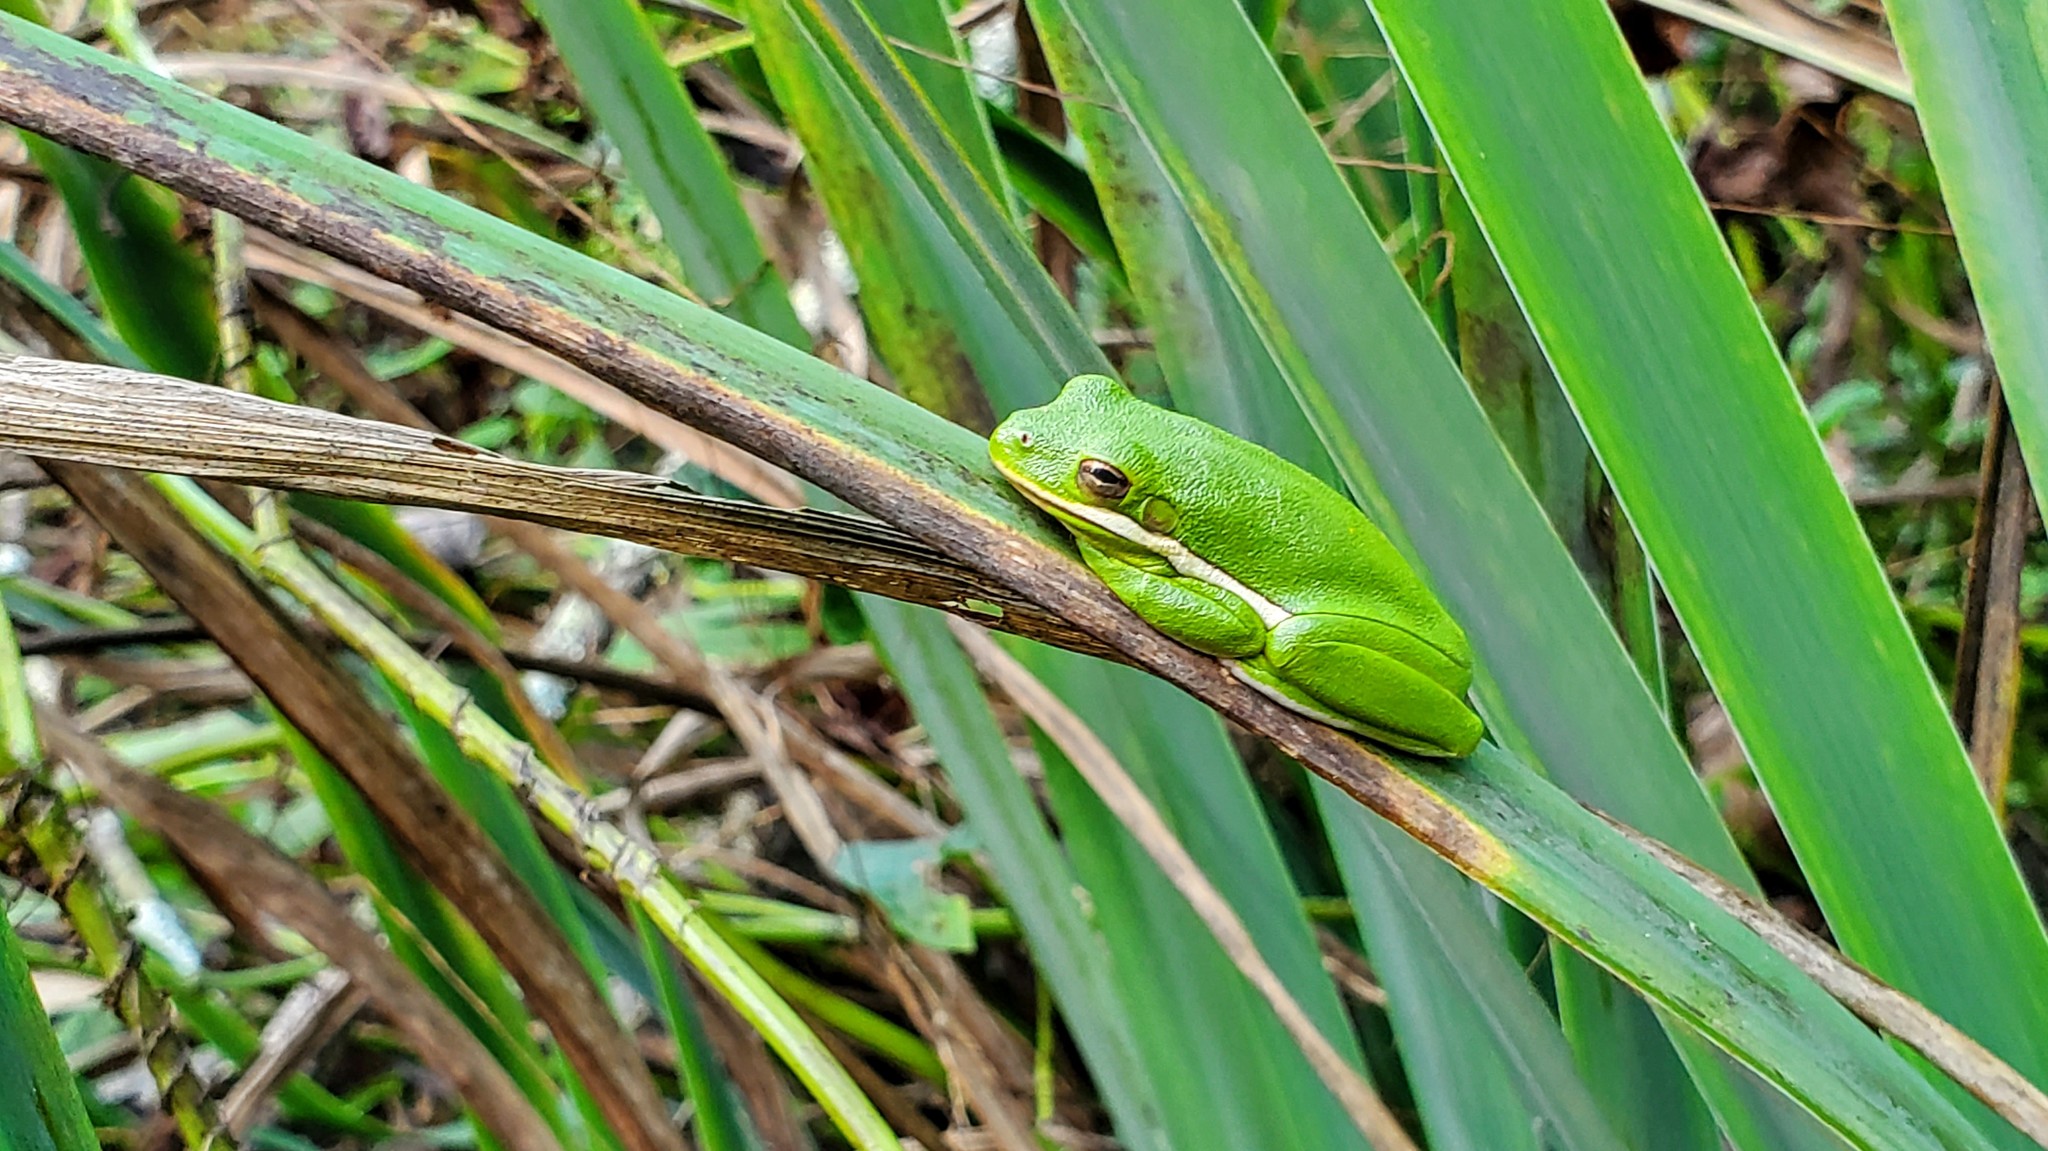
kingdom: Animalia
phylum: Chordata
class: Amphibia
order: Anura
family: Hylidae
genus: Dryophytes
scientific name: Dryophytes cinereus
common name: Green treefrog
